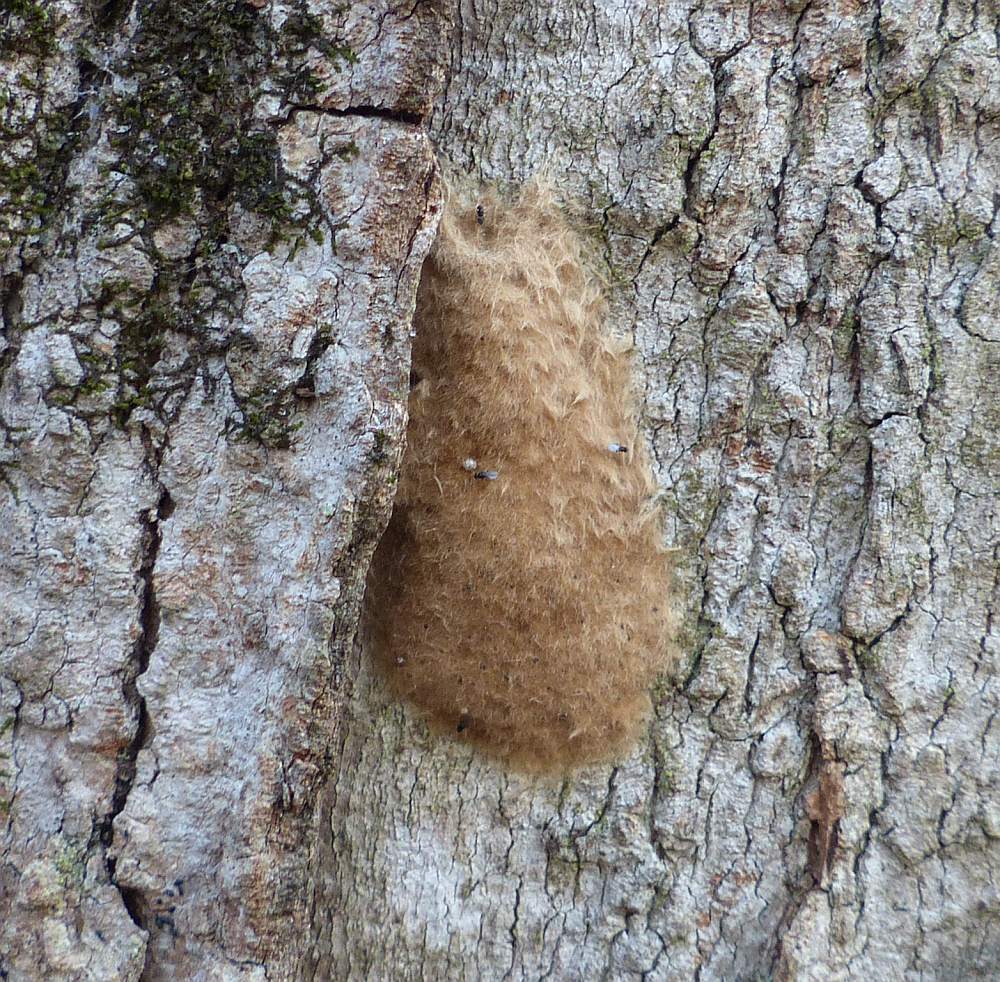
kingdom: Animalia
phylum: Arthropoda
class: Insecta
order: Lepidoptera
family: Erebidae
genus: Lymantria
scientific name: Lymantria dispar
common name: Gypsy moth
